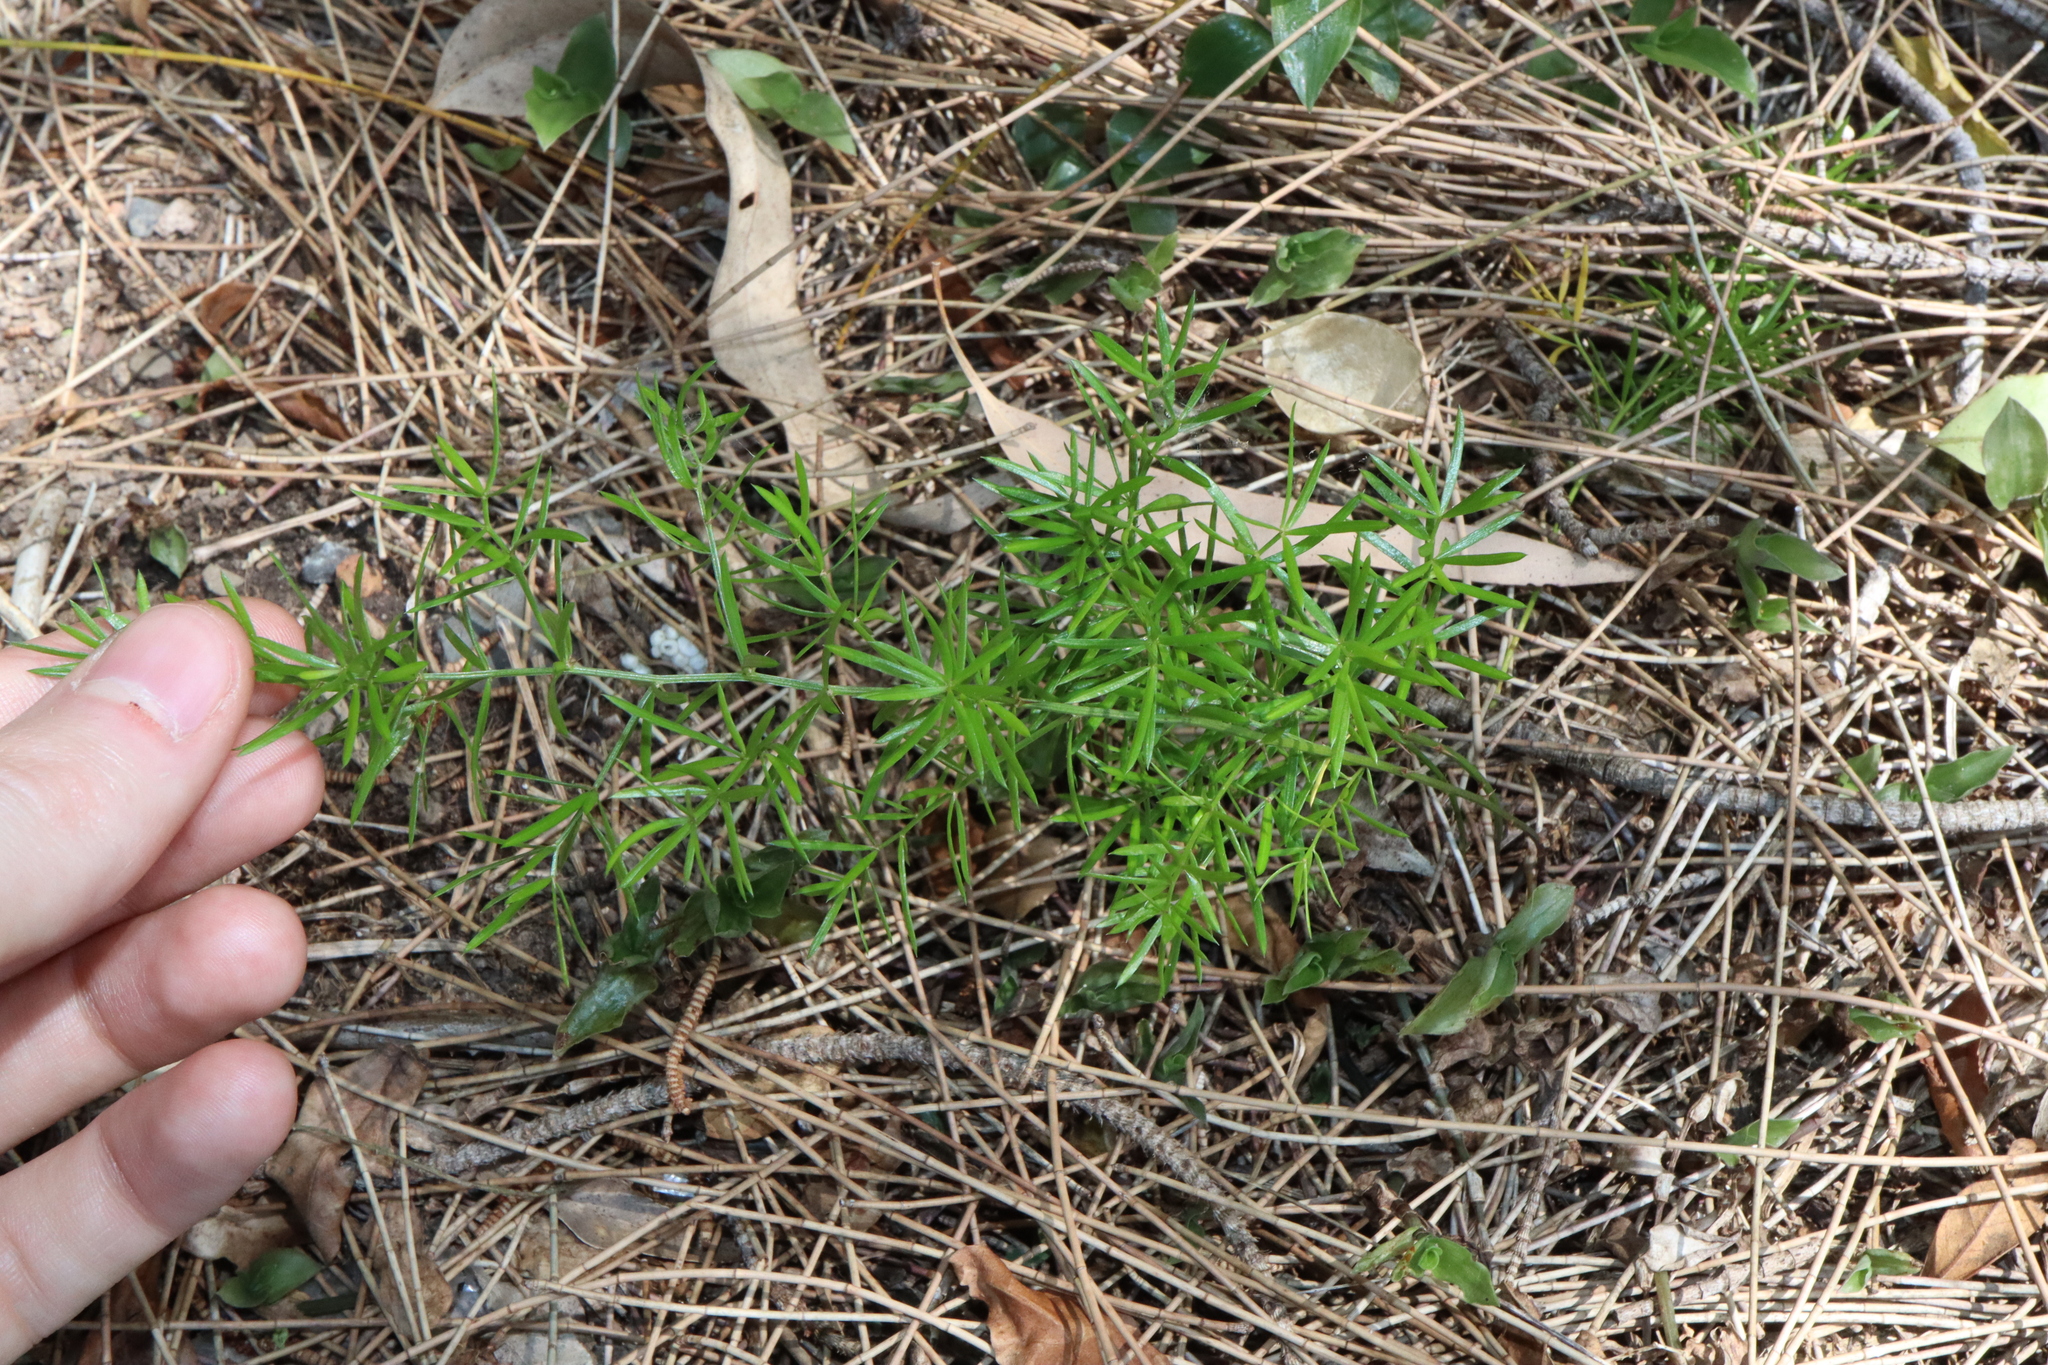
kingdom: Plantae
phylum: Tracheophyta
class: Liliopsida
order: Asparagales
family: Asparagaceae
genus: Asparagus
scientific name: Asparagus aethiopicus
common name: Sprenger's asparagus fern
